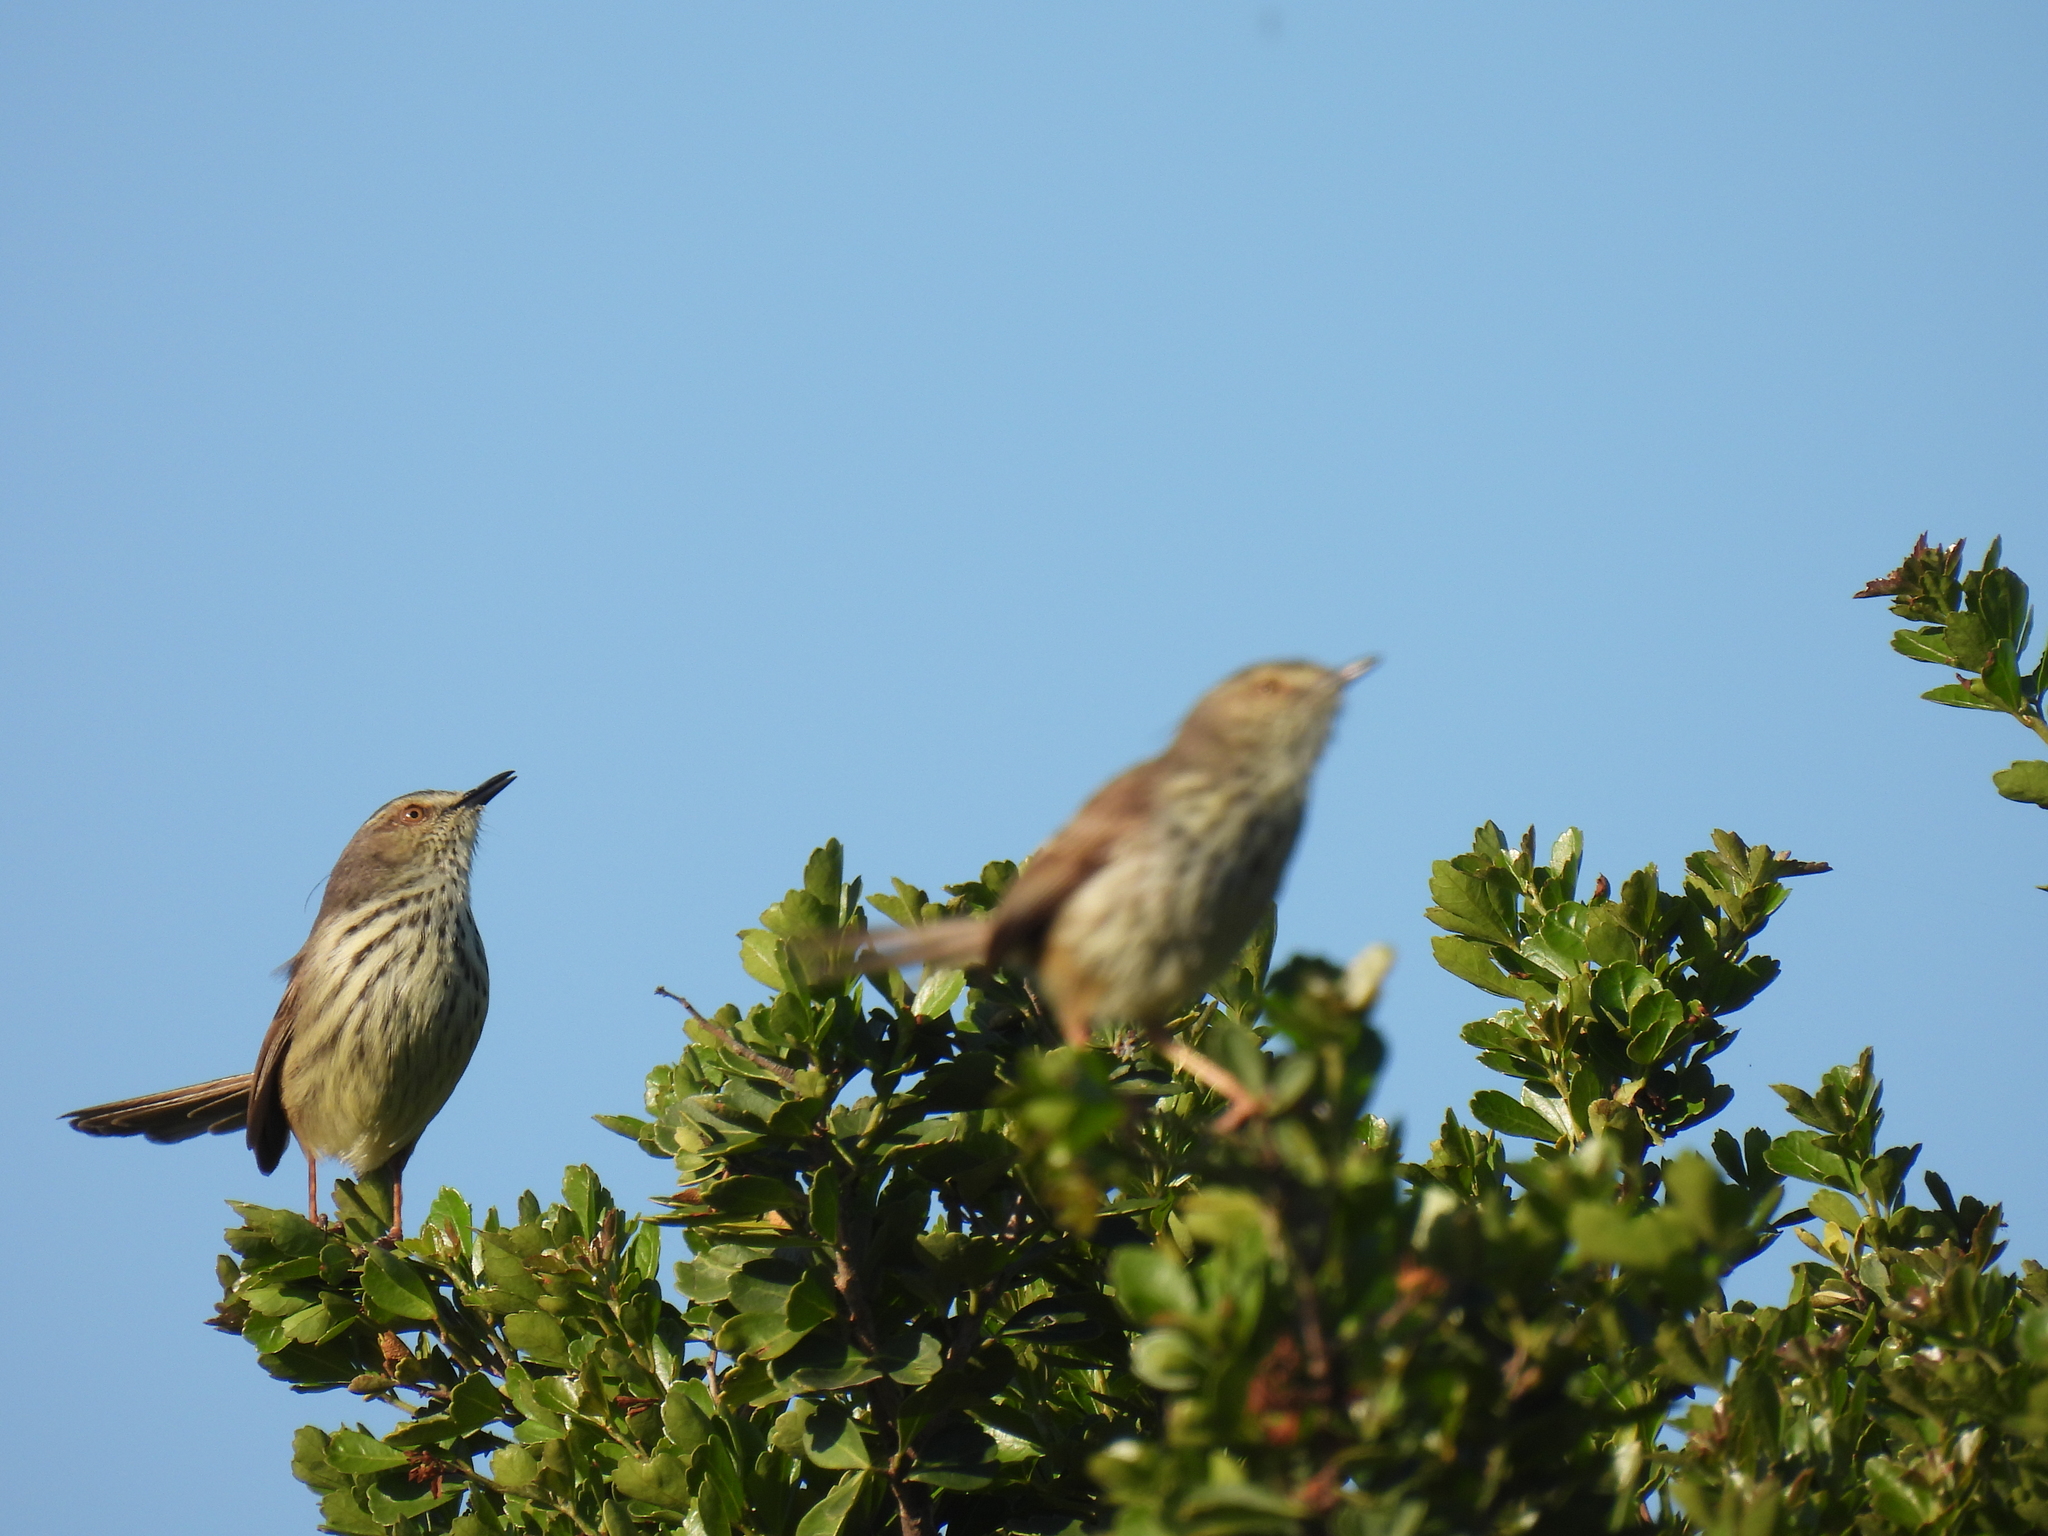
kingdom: Animalia
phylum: Chordata
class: Aves
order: Passeriformes
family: Cisticolidae
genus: Prinia
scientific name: Prinia maculosa
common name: Karoo prinia
